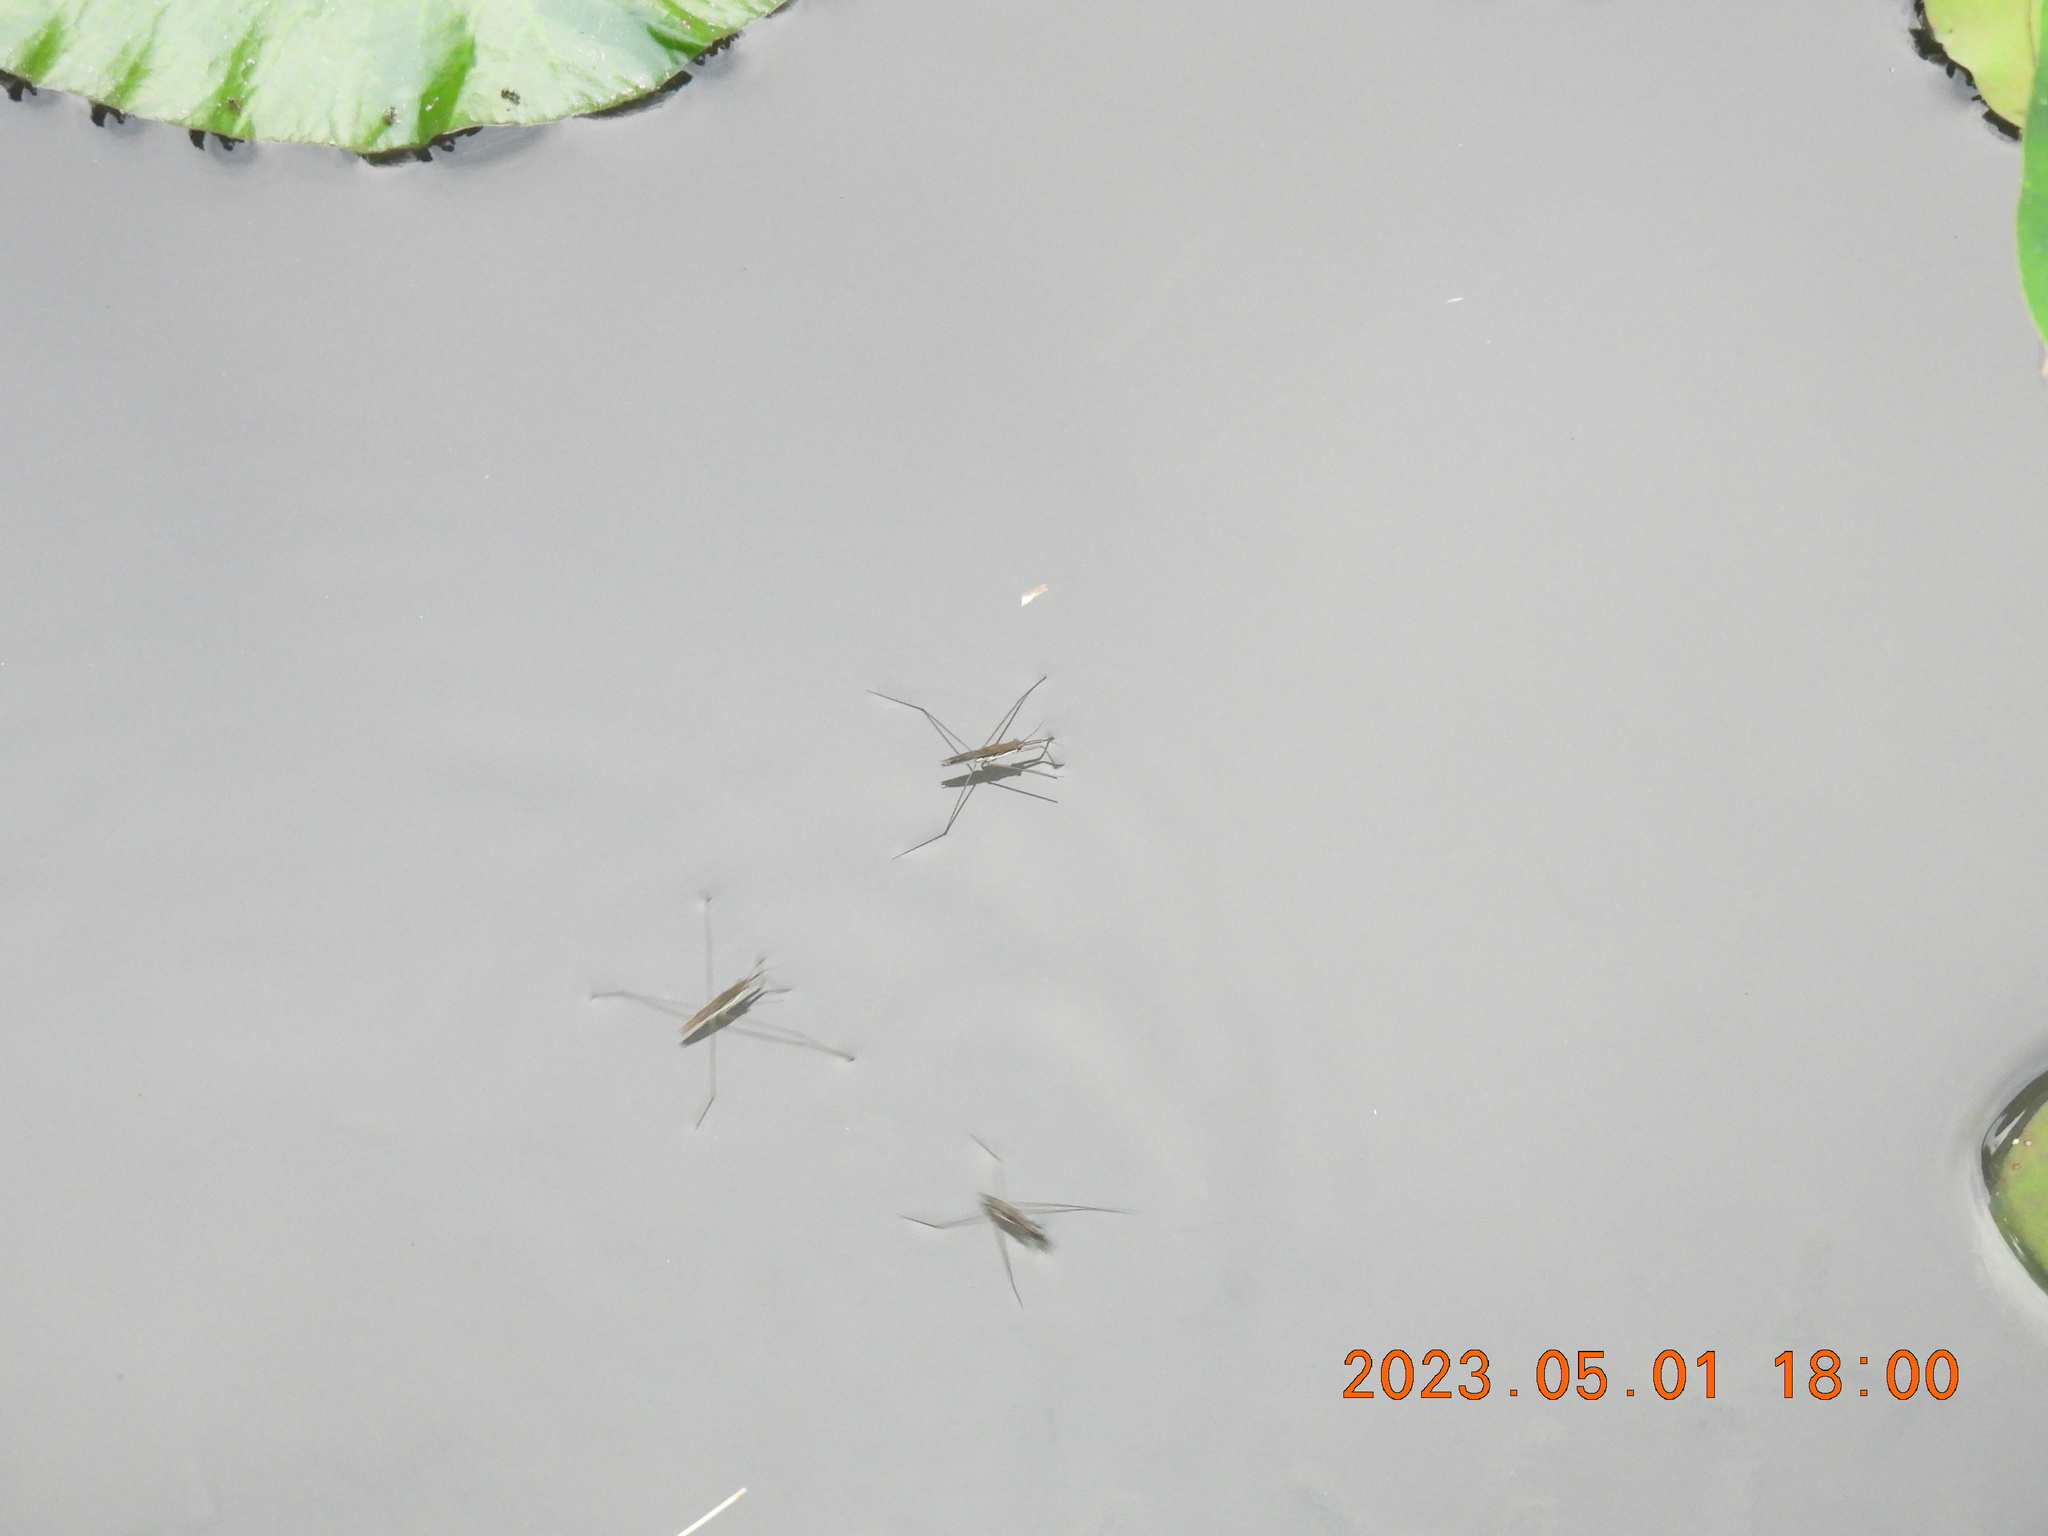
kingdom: Animalia
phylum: Arthropoda
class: Insecta
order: Hemiptera
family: Gerridae
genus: Aquarius
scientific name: Aquarius paludum
